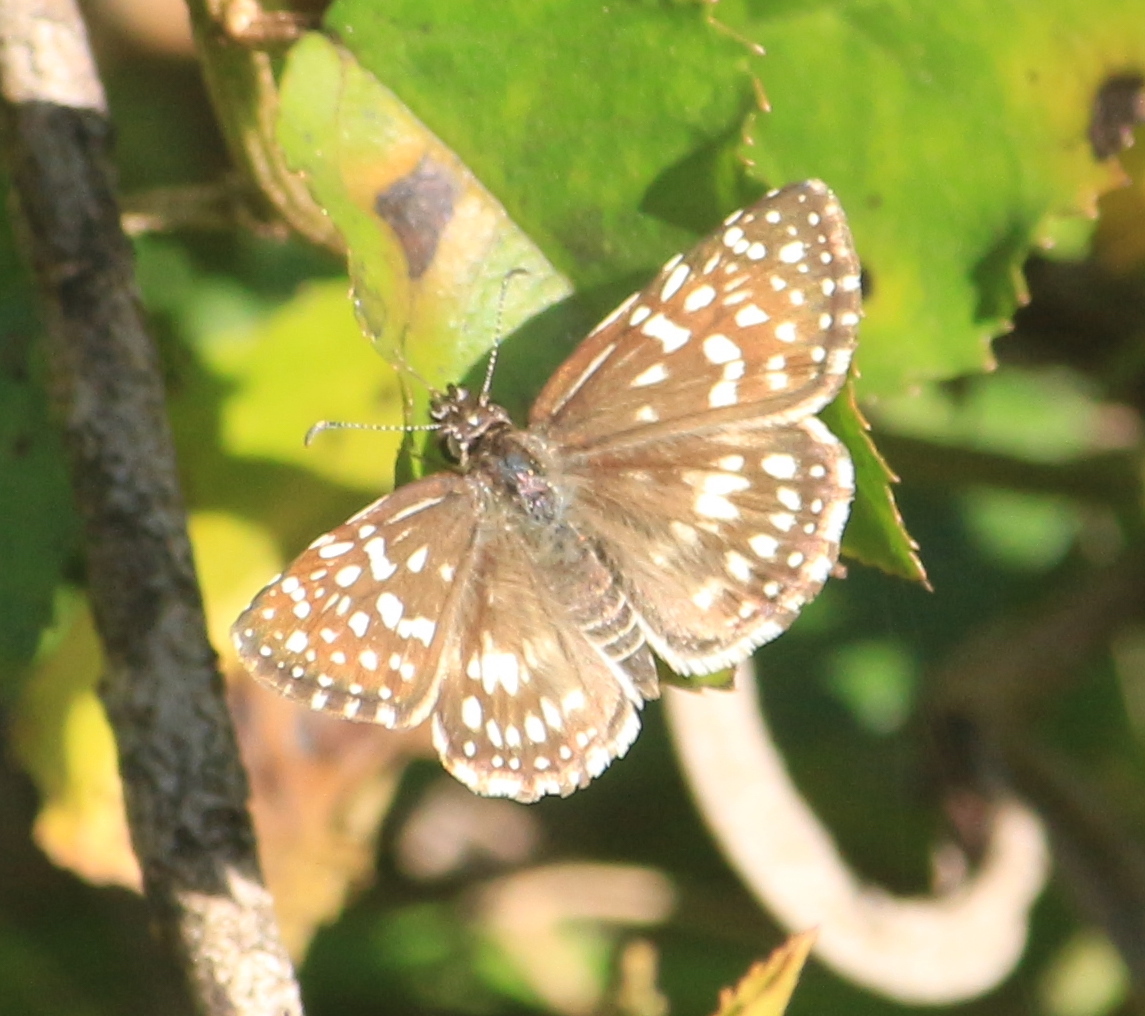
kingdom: Animalia
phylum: Arthropoda
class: Insecta
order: Lepidoptera
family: Hesperiidae
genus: Pyrgus
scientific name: Pyrgus oileus
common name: Tropical checkered-skipper
